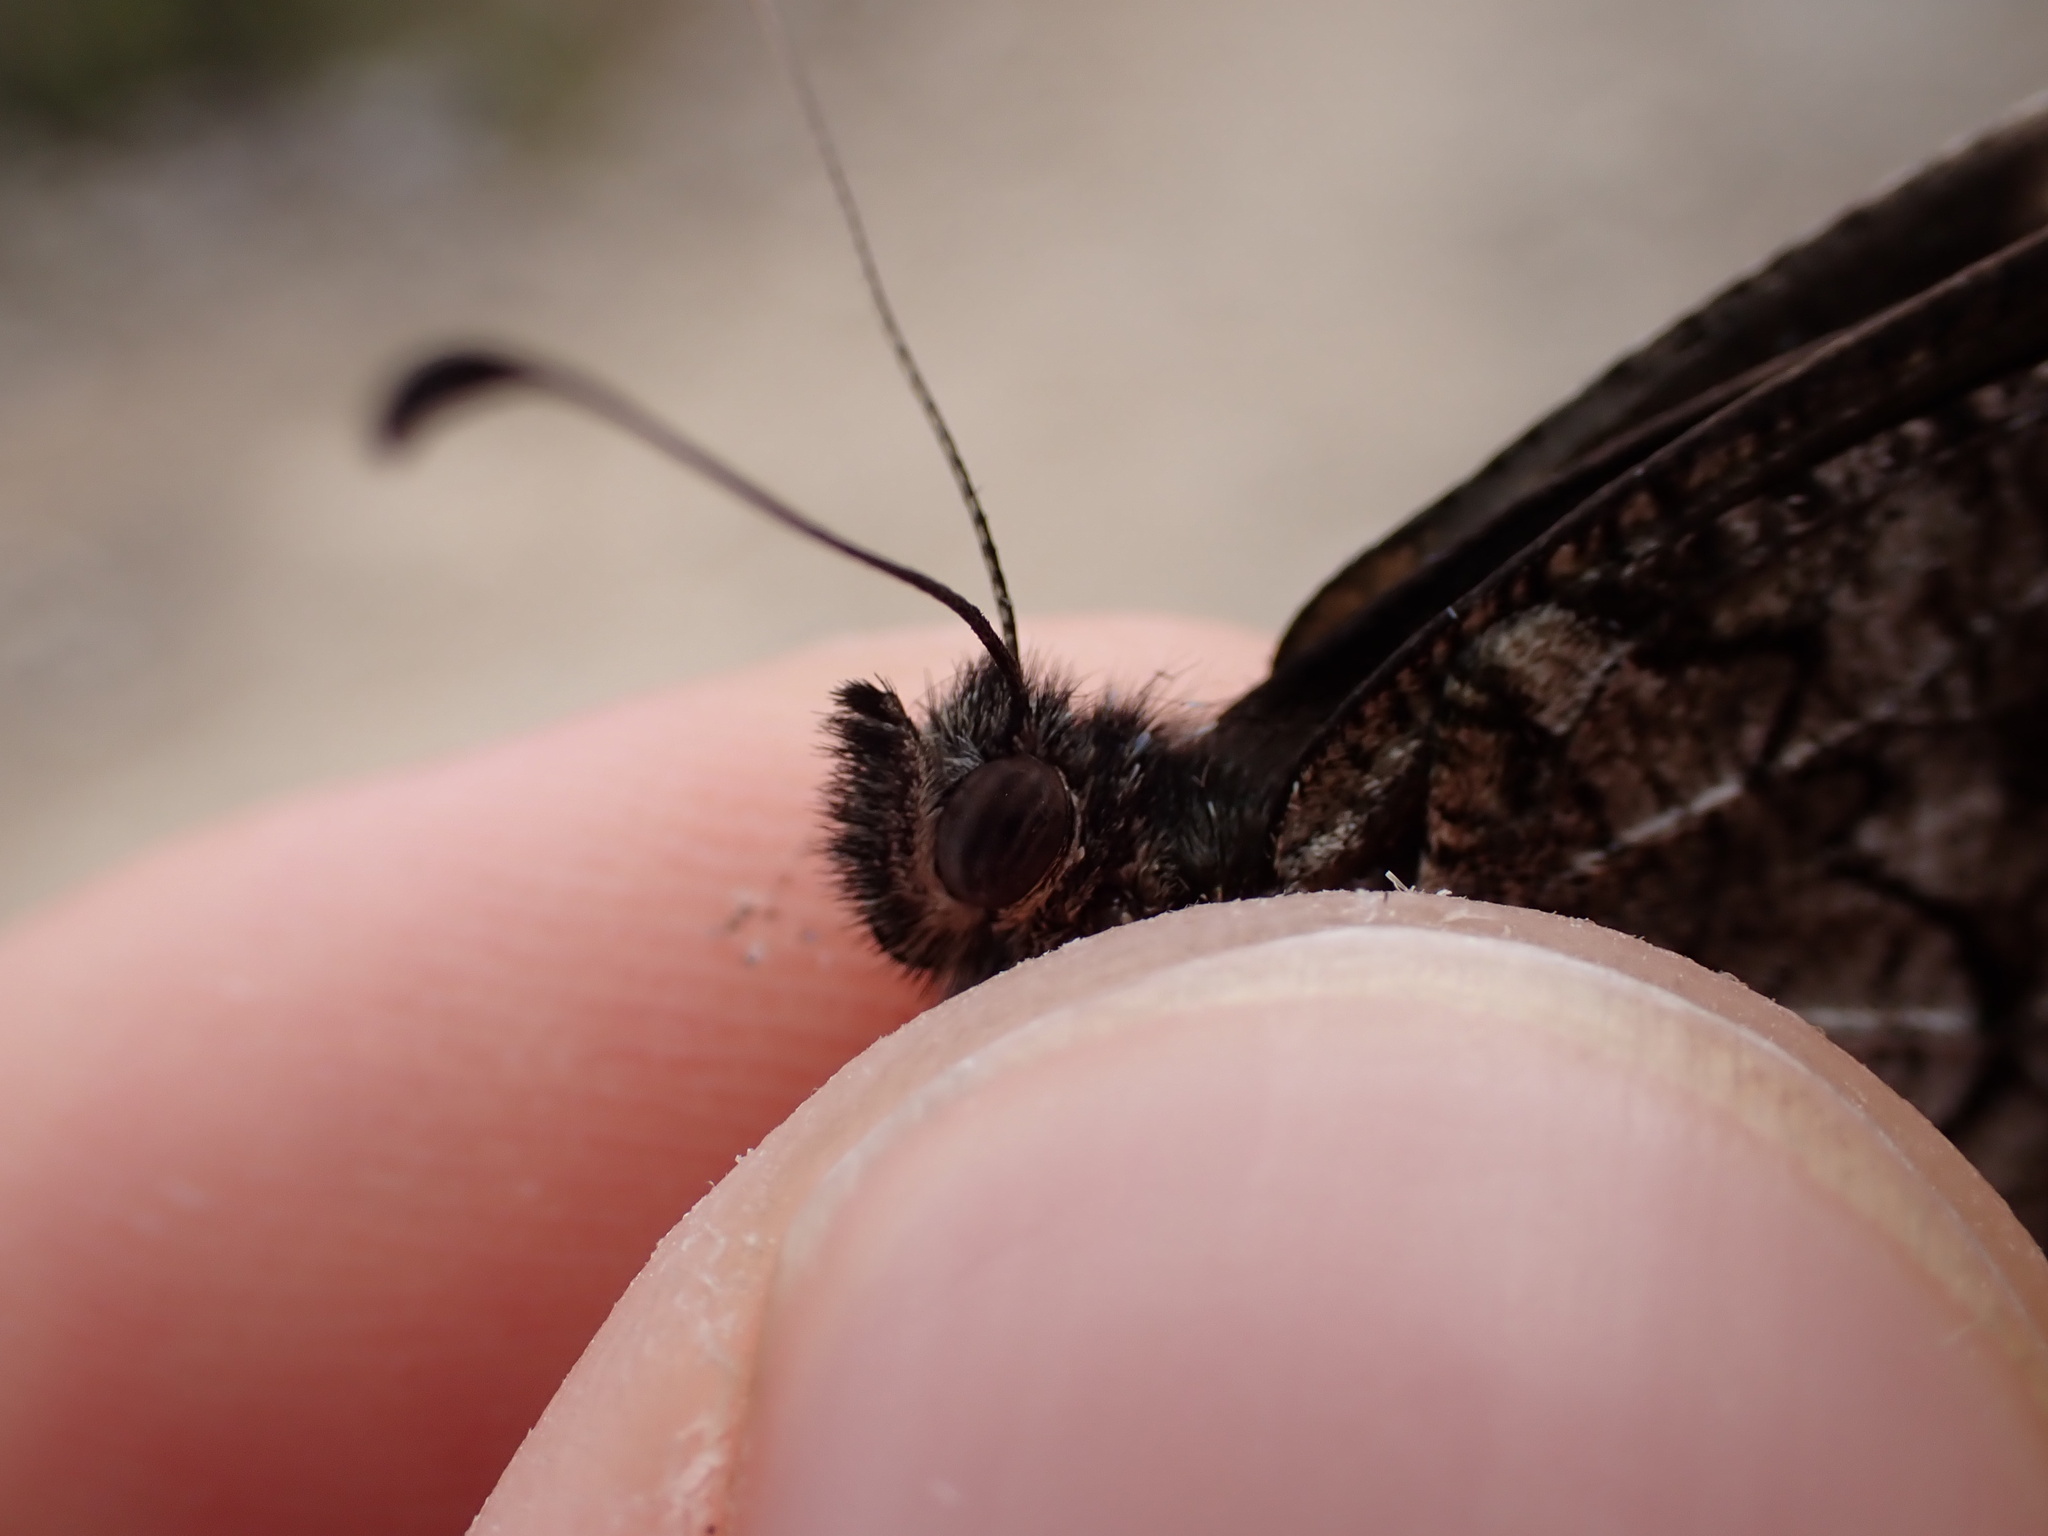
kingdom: Animalia
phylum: Arthropoda
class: Insecta
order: Lepidoptera
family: Nymphalidae
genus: Hipparchia
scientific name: Hipparchia fagi
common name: Woodland grayling
